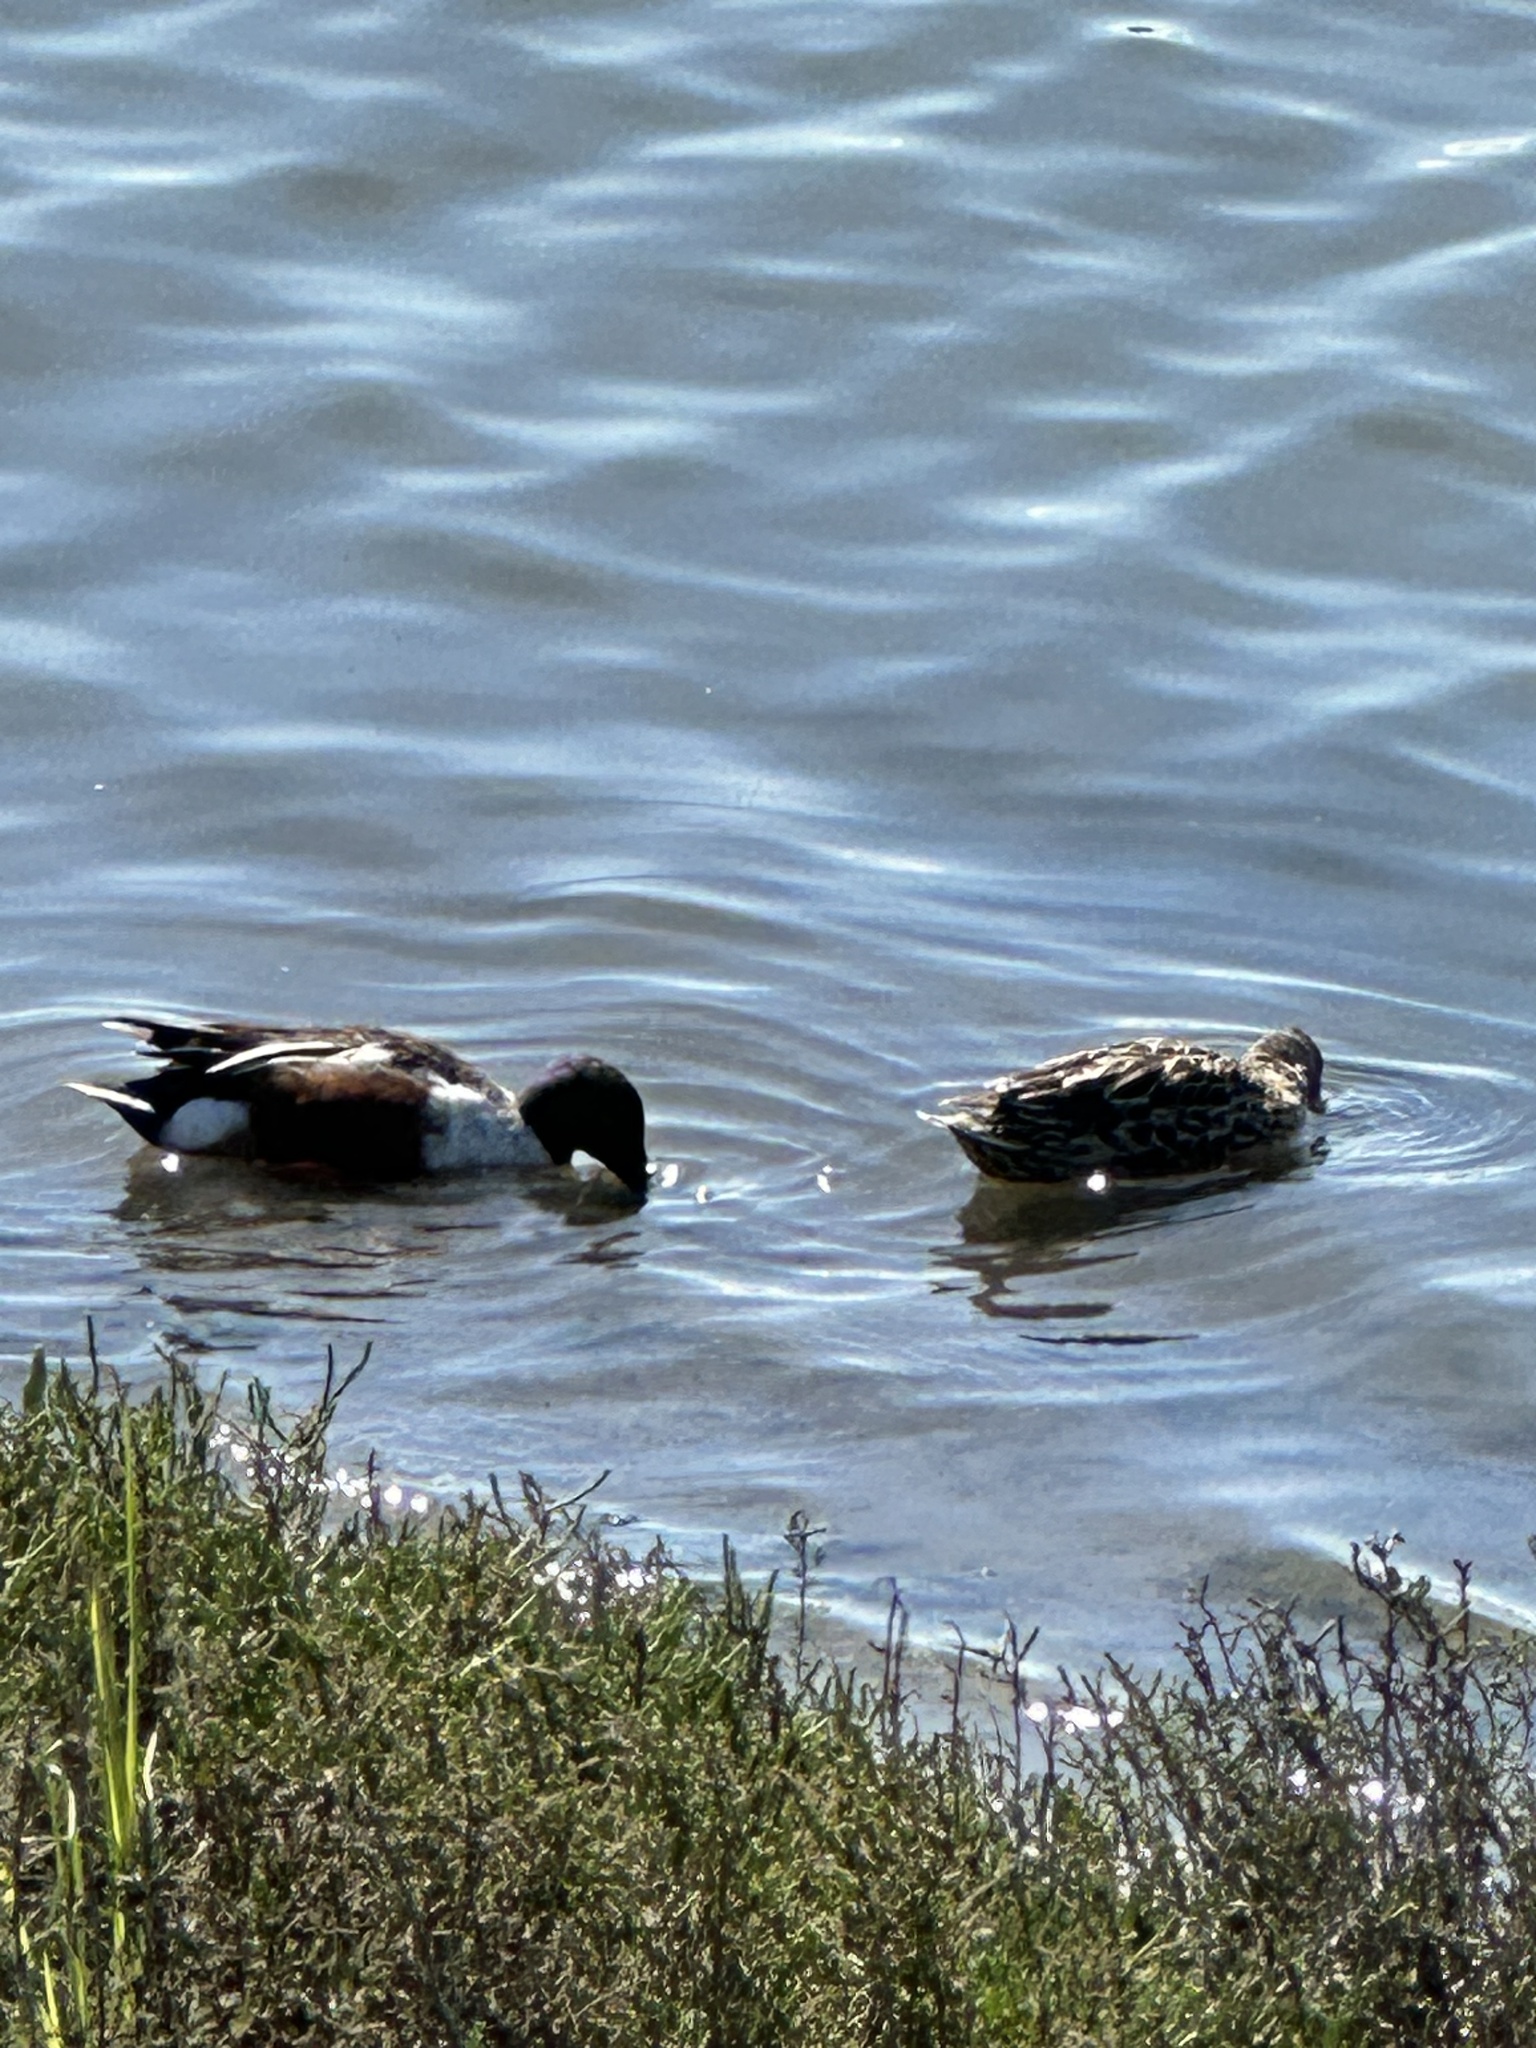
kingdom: Animalia
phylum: Chordata
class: Aves
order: Anseriformes
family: Anatidae
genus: Spatula
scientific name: Spatula clypeata
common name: Northern shoveler
